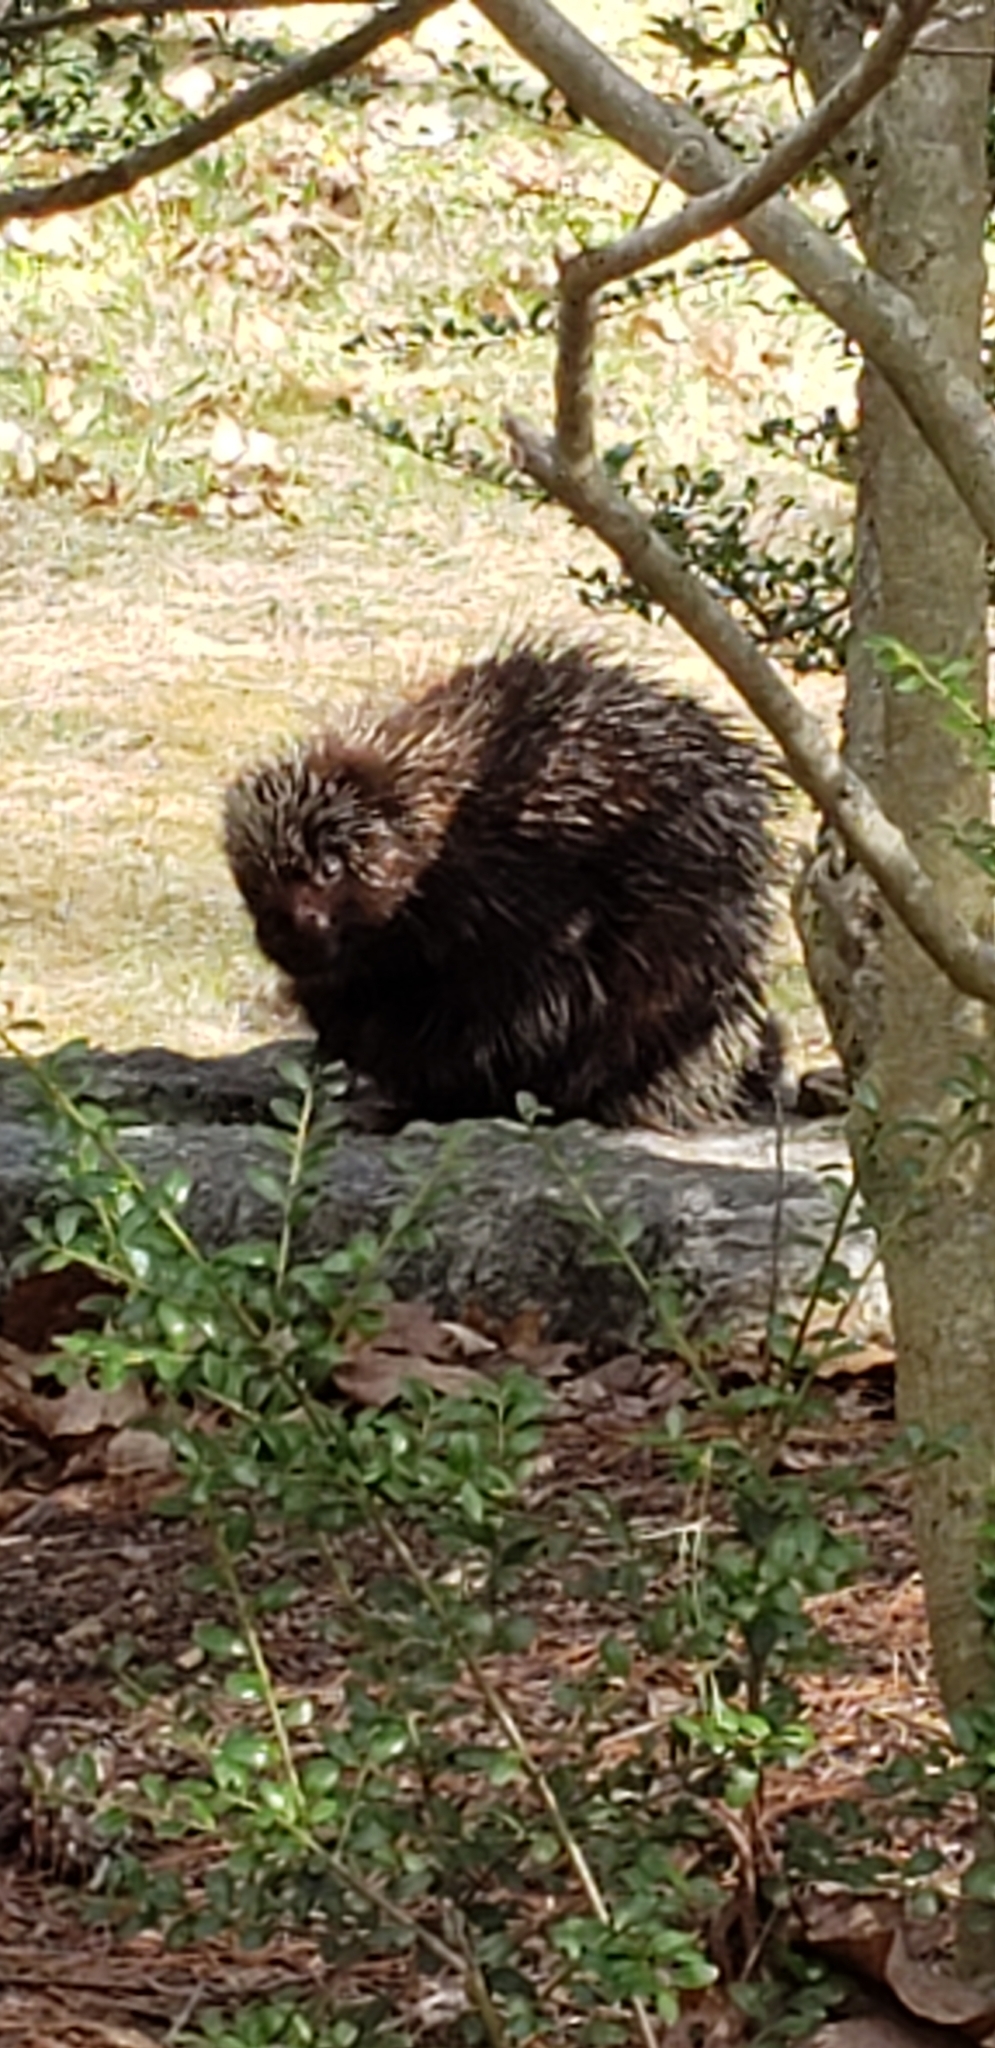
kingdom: Animalia
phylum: Chordata
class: Mammalia
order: Rodentia
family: Erethizontidae
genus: Erethizon
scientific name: Erethizon dorsatus
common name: North american porcupine
